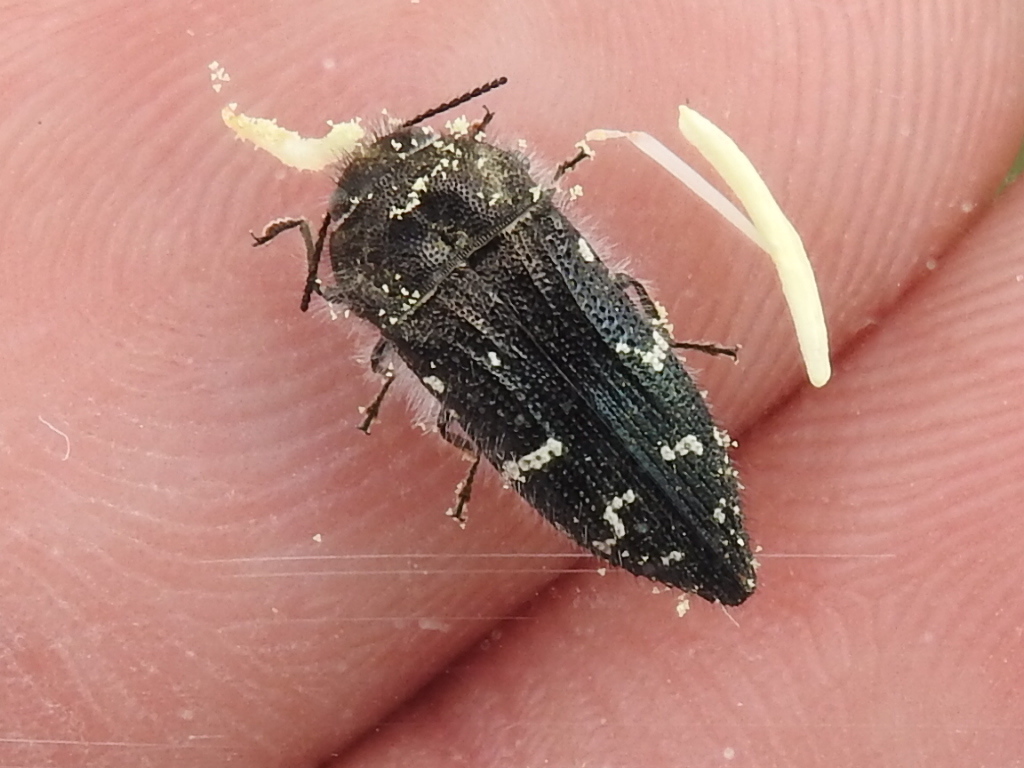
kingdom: Animalia
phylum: Arthropoda
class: Insecta
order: Coleoptera
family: Buprestidae
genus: Acmaeodera
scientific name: Acmaeodera ornatoides
